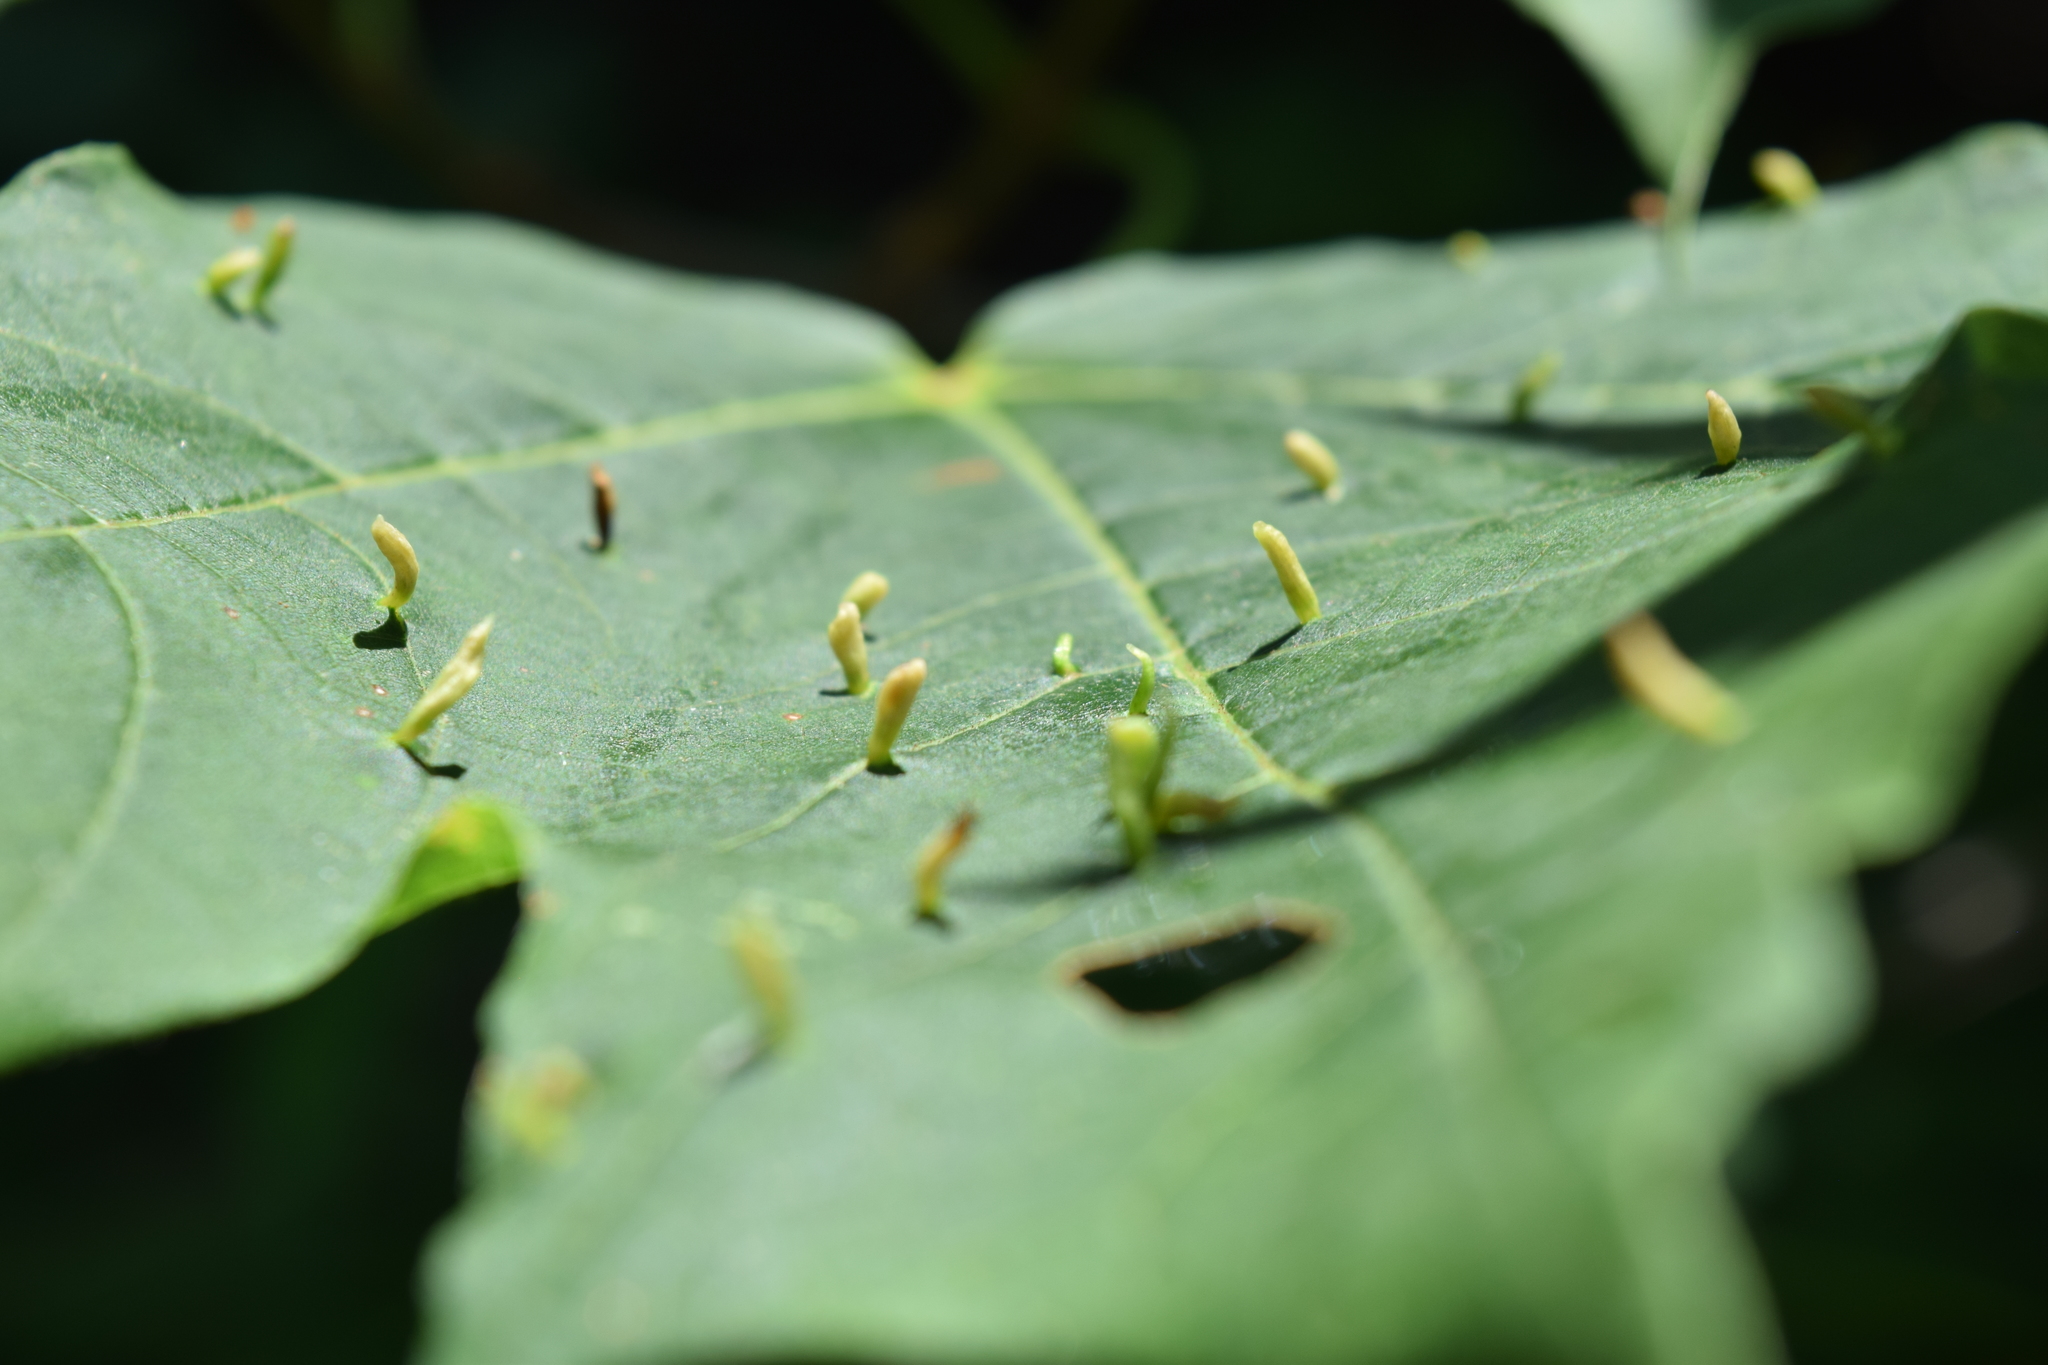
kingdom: Animalia
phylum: Arthropoda
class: Arachnida
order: Trombidiformes
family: Eriophyidae
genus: Vasates
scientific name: Vasates aceriscrumena
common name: Maple spindle gall mite
